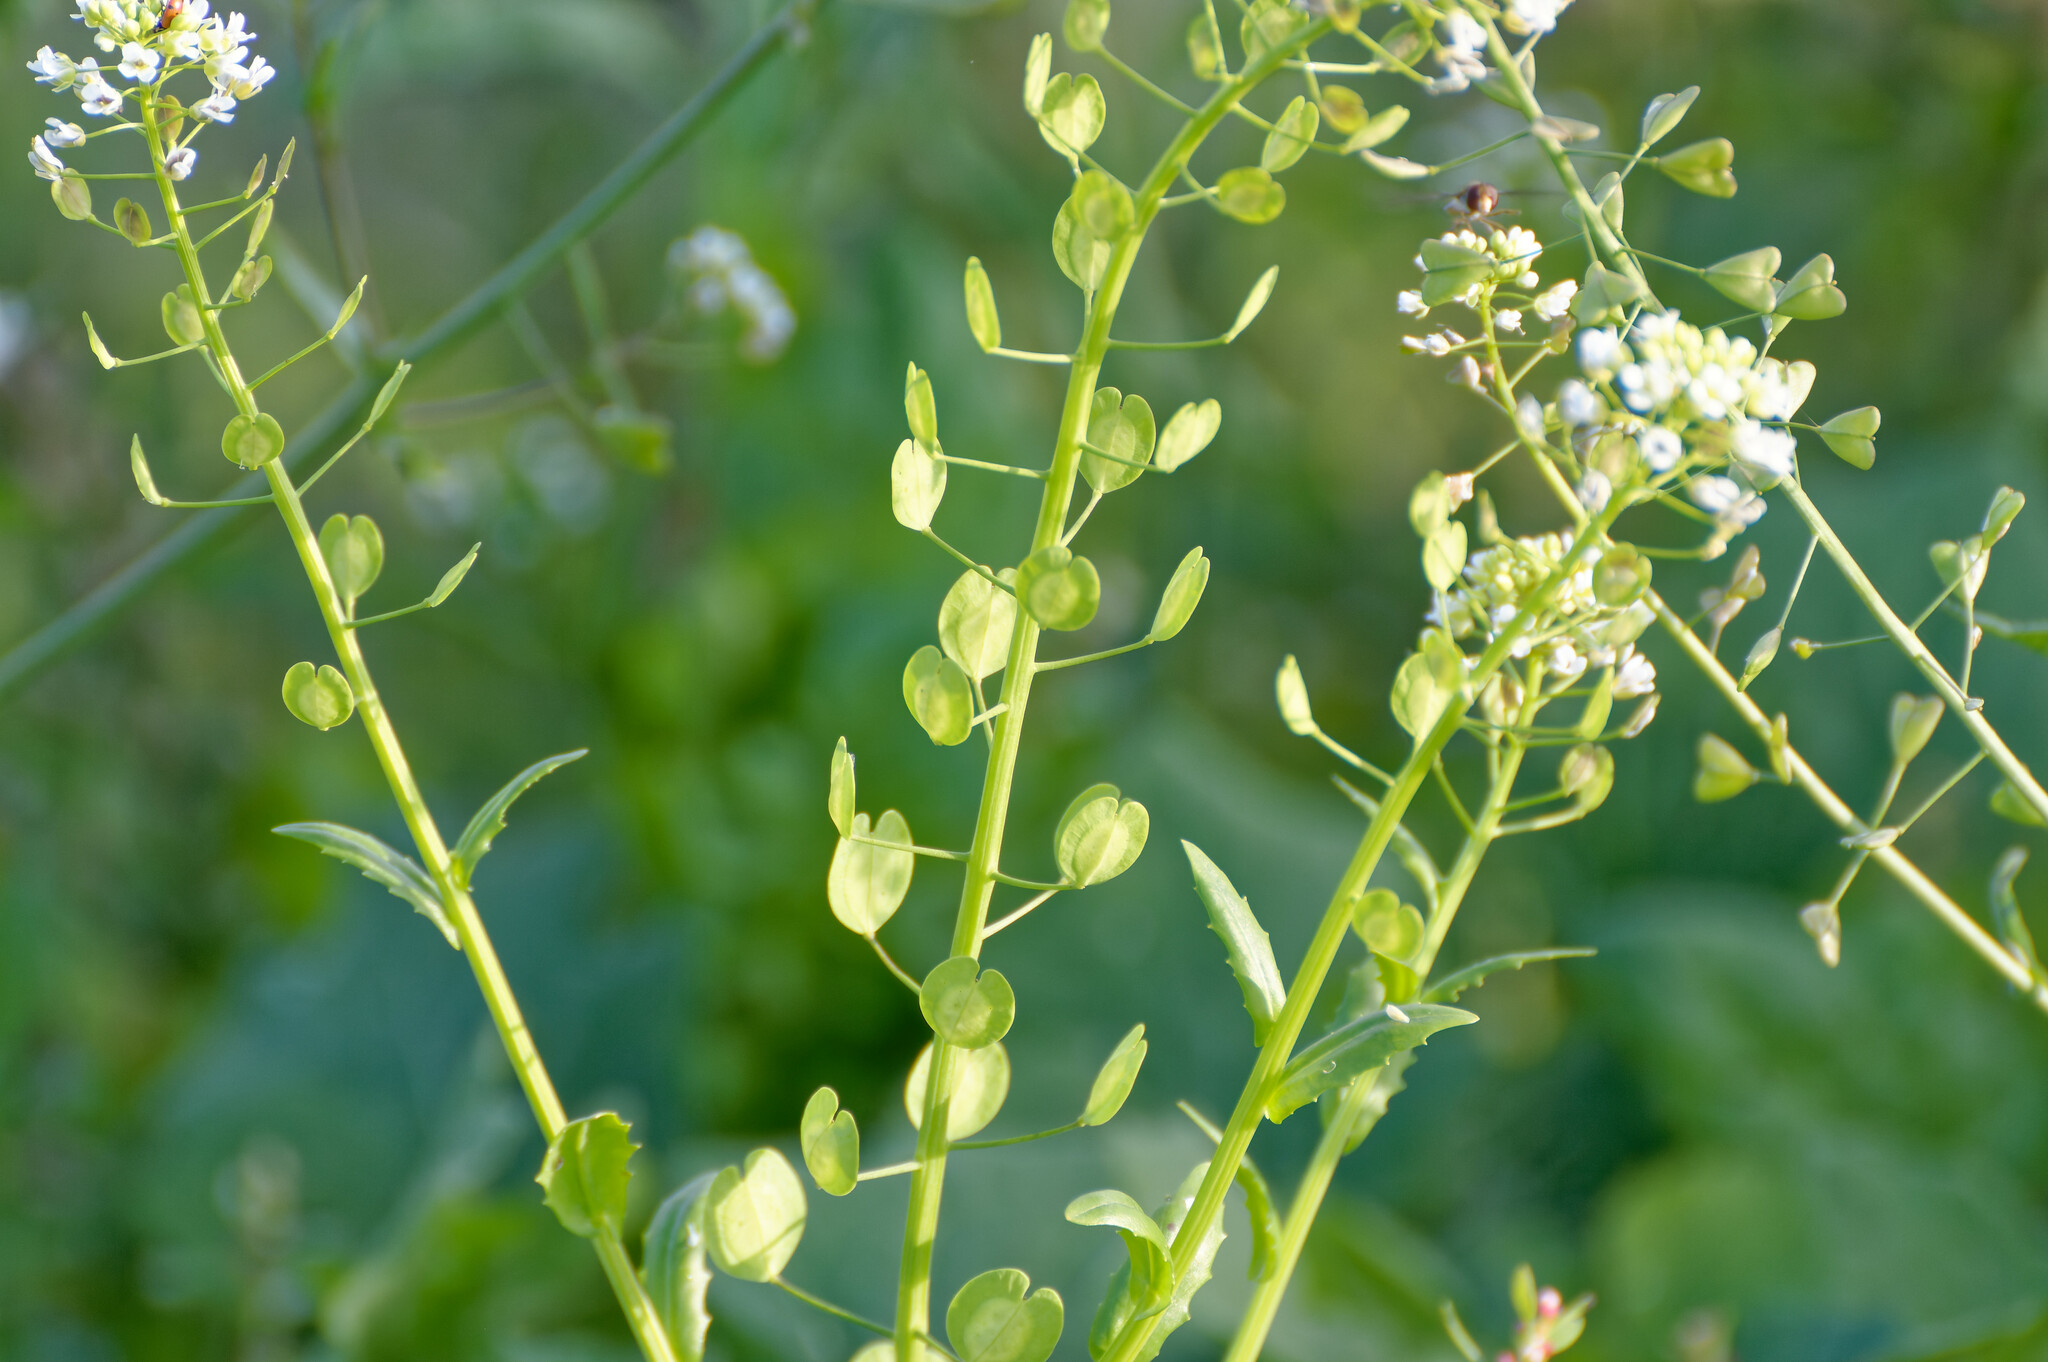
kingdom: Plantae
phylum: Tracheophyta
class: Magnoliopsida
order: Brassicales
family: Brassicaceae
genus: Thlaspi
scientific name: Thlaspi arvense
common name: Field pennycress
